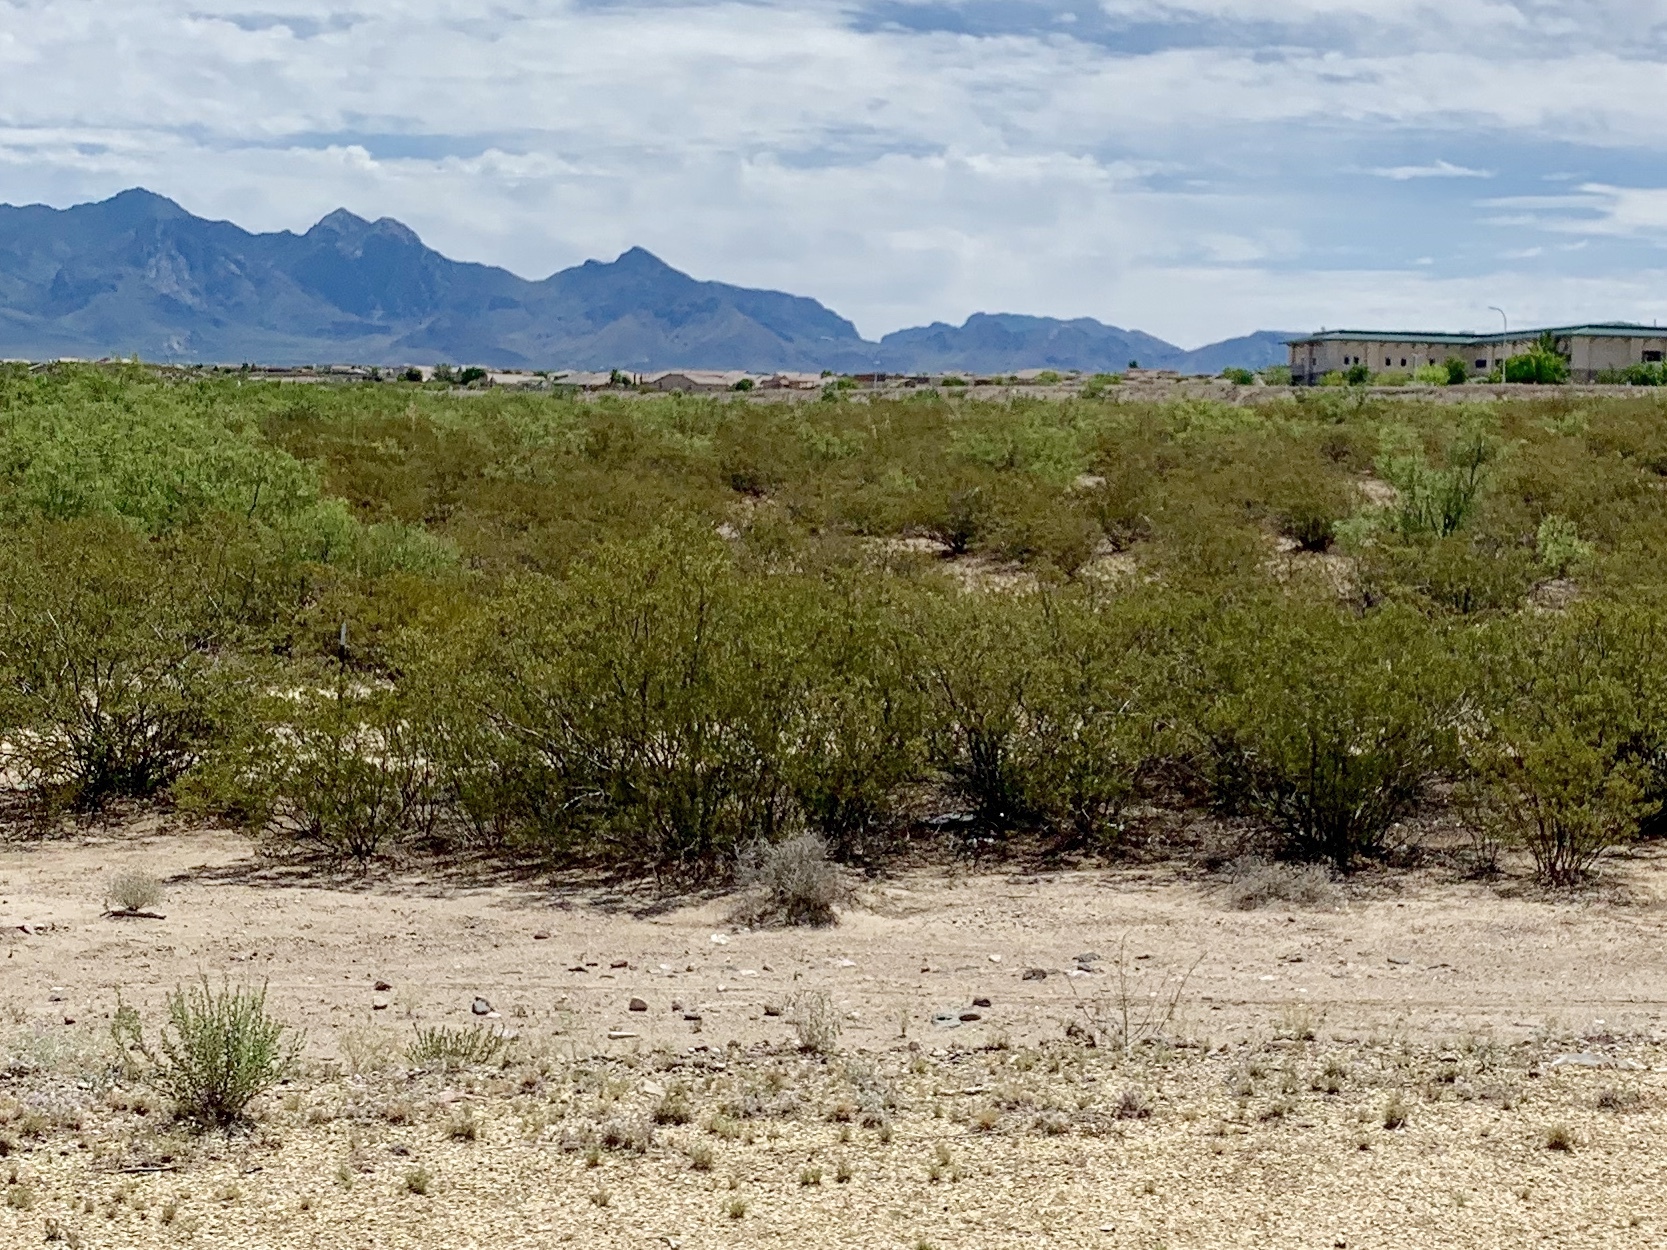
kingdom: Plantae
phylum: Tracheophyta
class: Magnoliopsida
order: Zygophyllales
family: Zygophyllaceae
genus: Larrea
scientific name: Larrea tridentata
